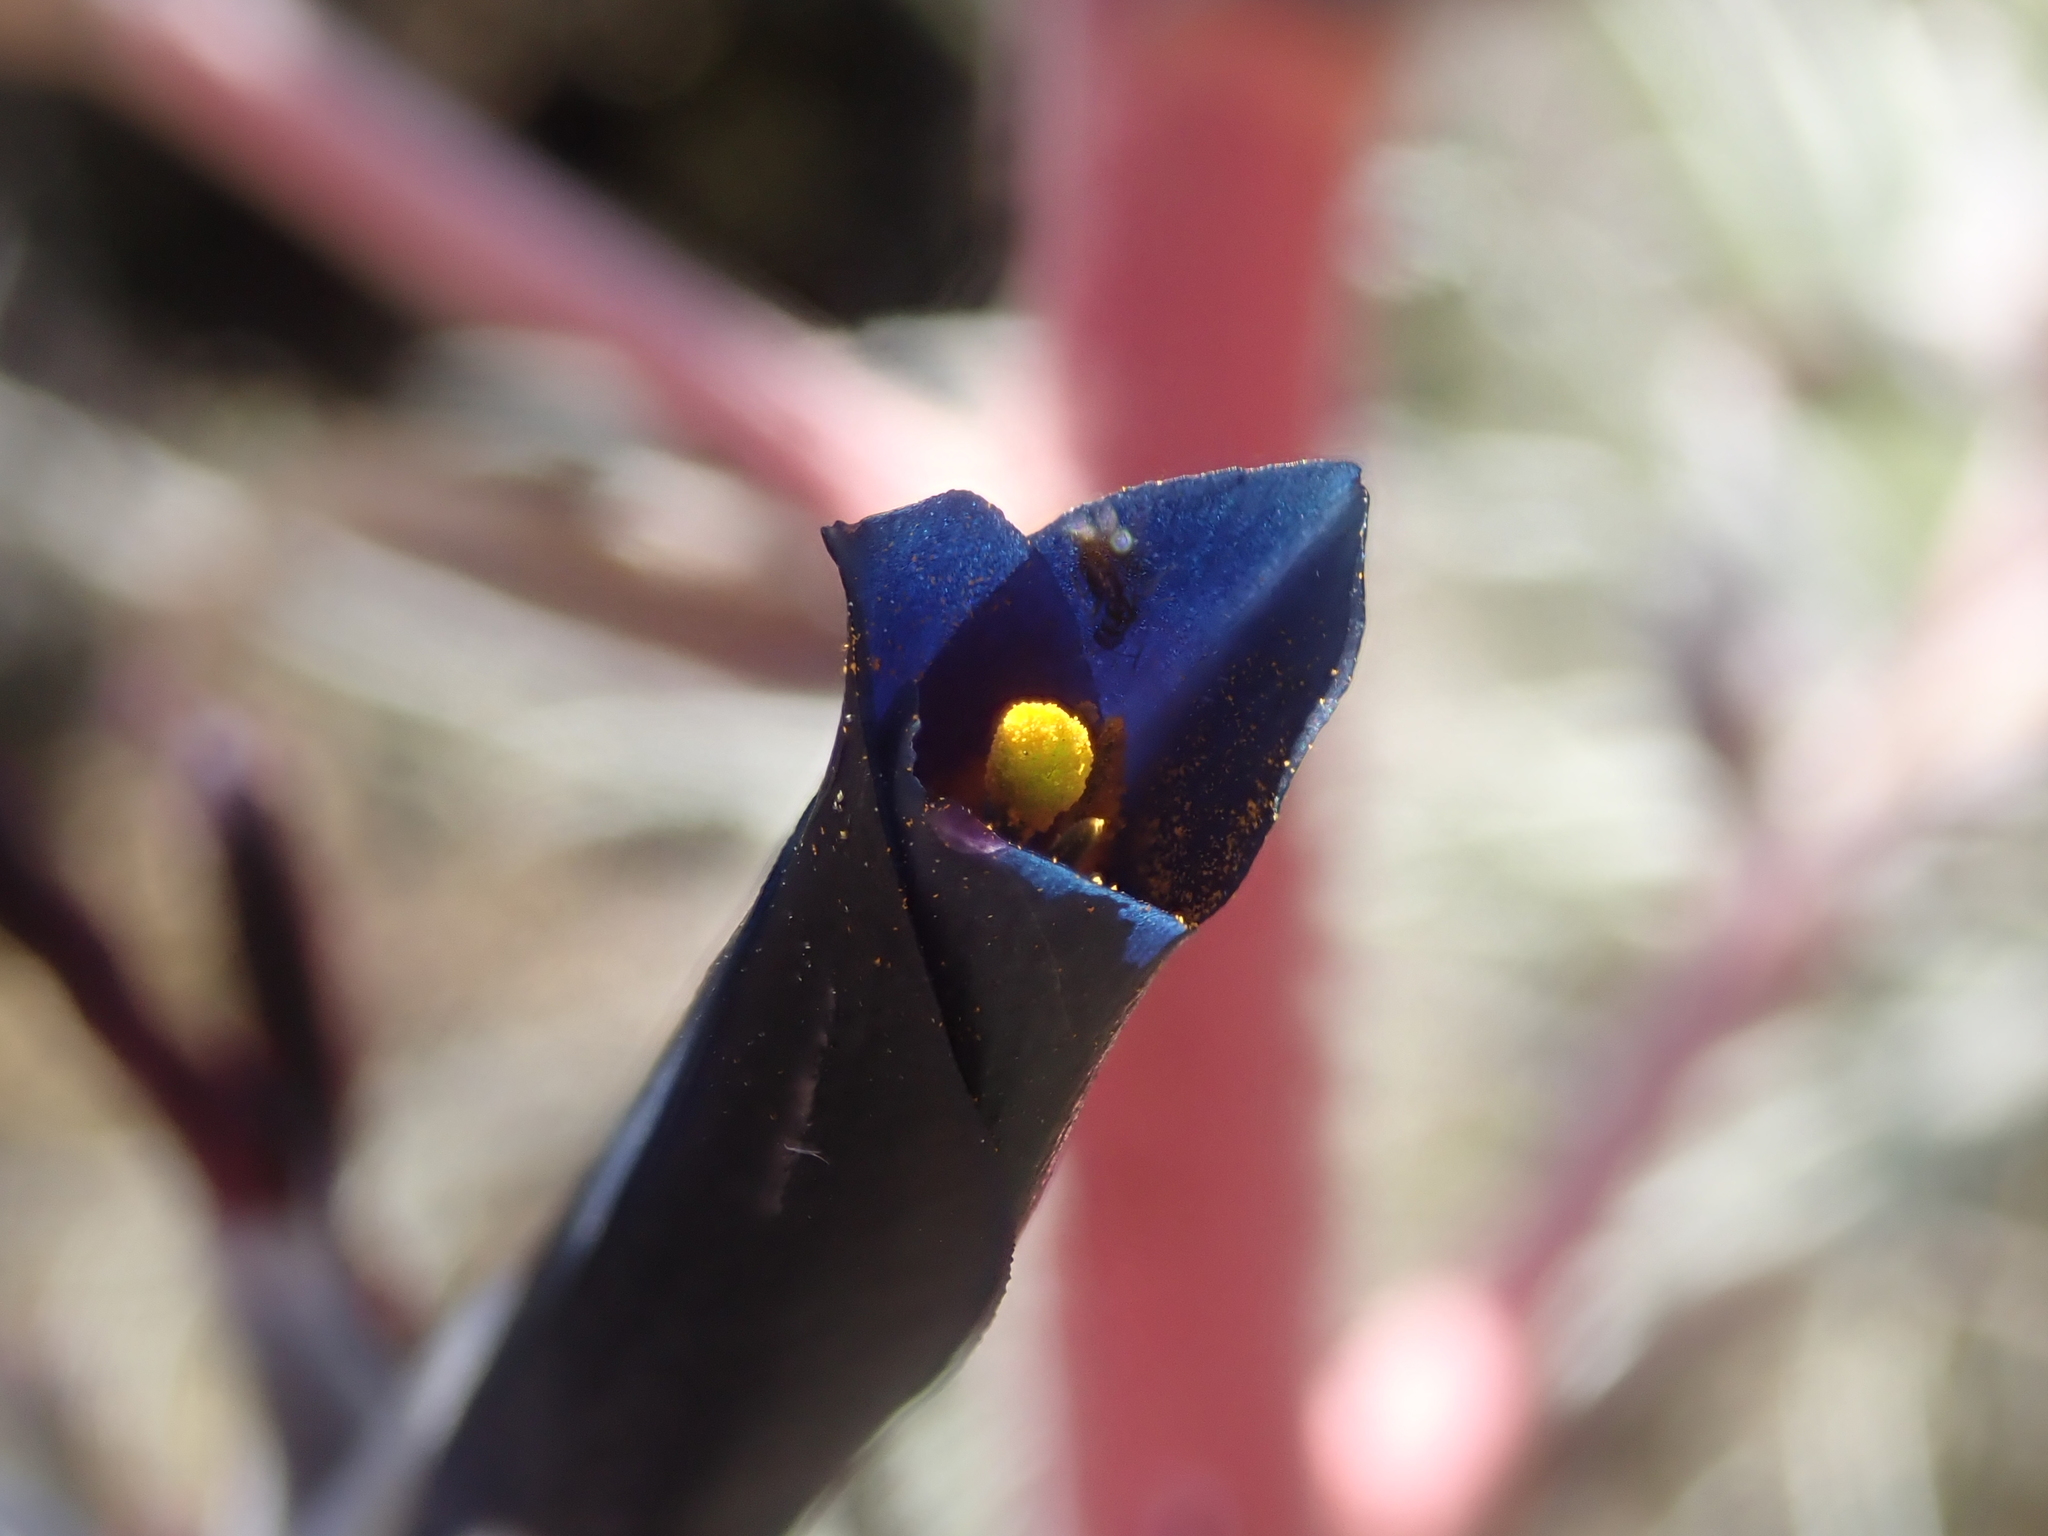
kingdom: Plantae
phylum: Tracheophyta
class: Liliopsida
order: Poales
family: Bromeliaceae
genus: Puya
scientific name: Puya coerulea
